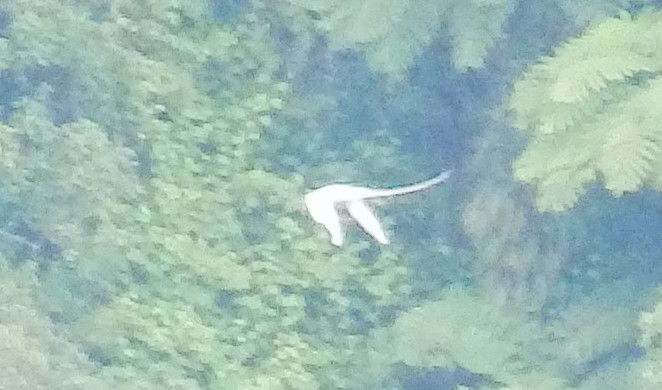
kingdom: Animalia
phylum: Chordata
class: Aves
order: Phaethontiformes
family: Phaethontidae
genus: Phaethon
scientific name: Phaethon lepturus
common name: White-tailed tropicbird
